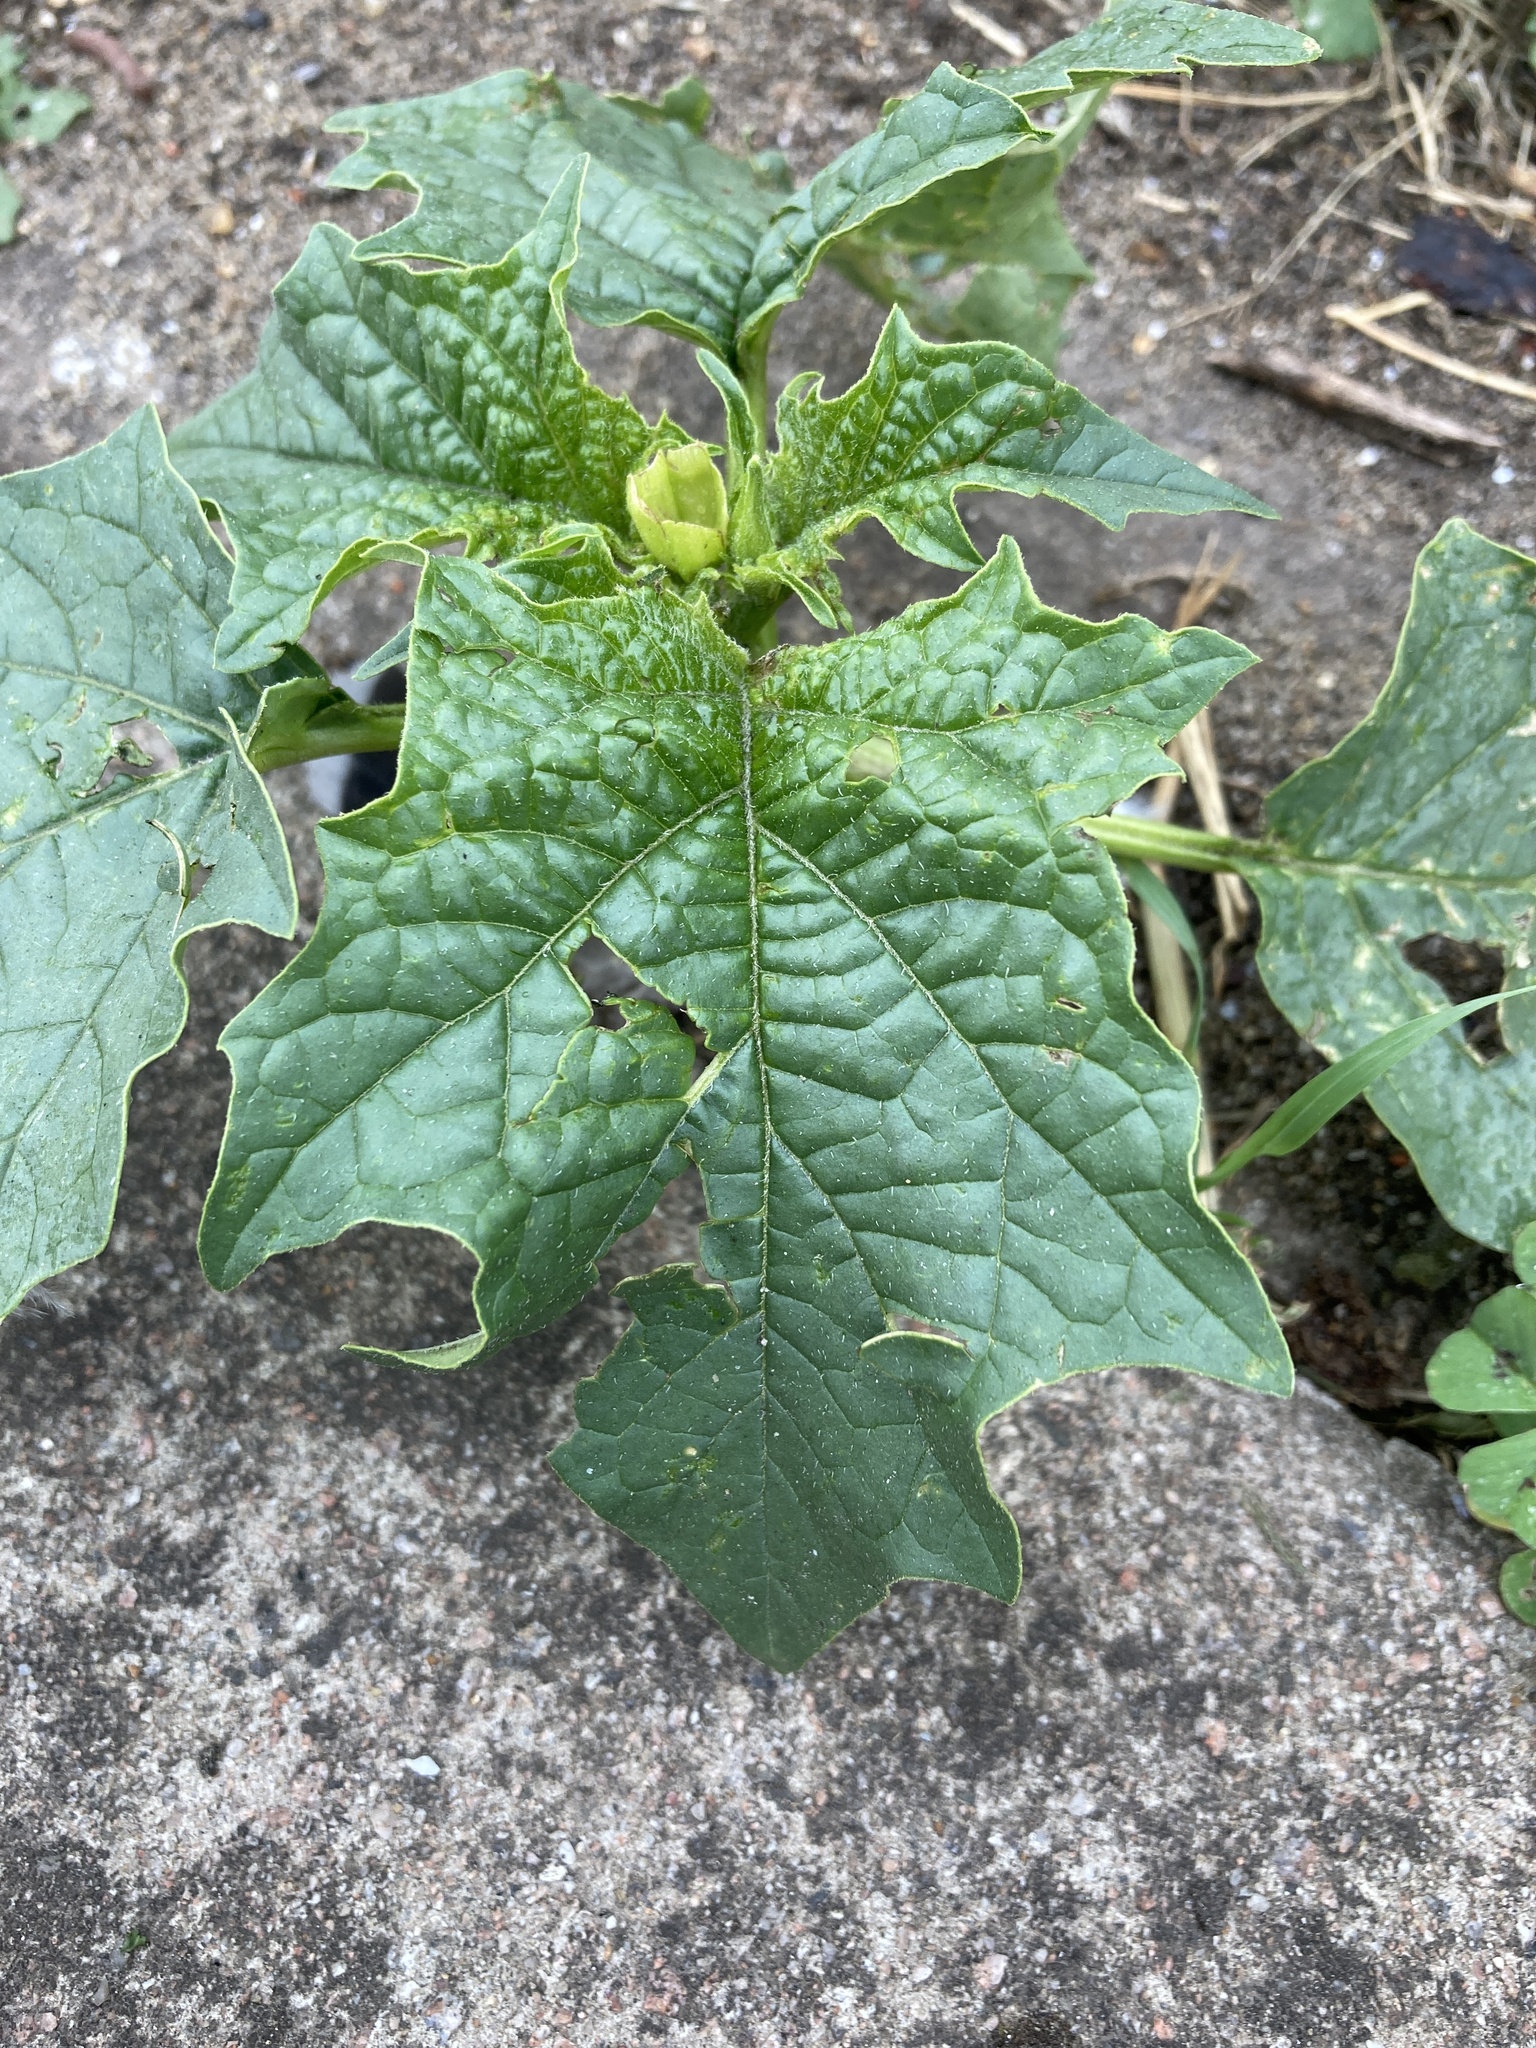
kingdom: Plantae
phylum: Tracheophyta
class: Magnoliopsida
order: Solanales
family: Solanaceae
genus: Datura
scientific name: Datura stramonium
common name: Thorn-apple
